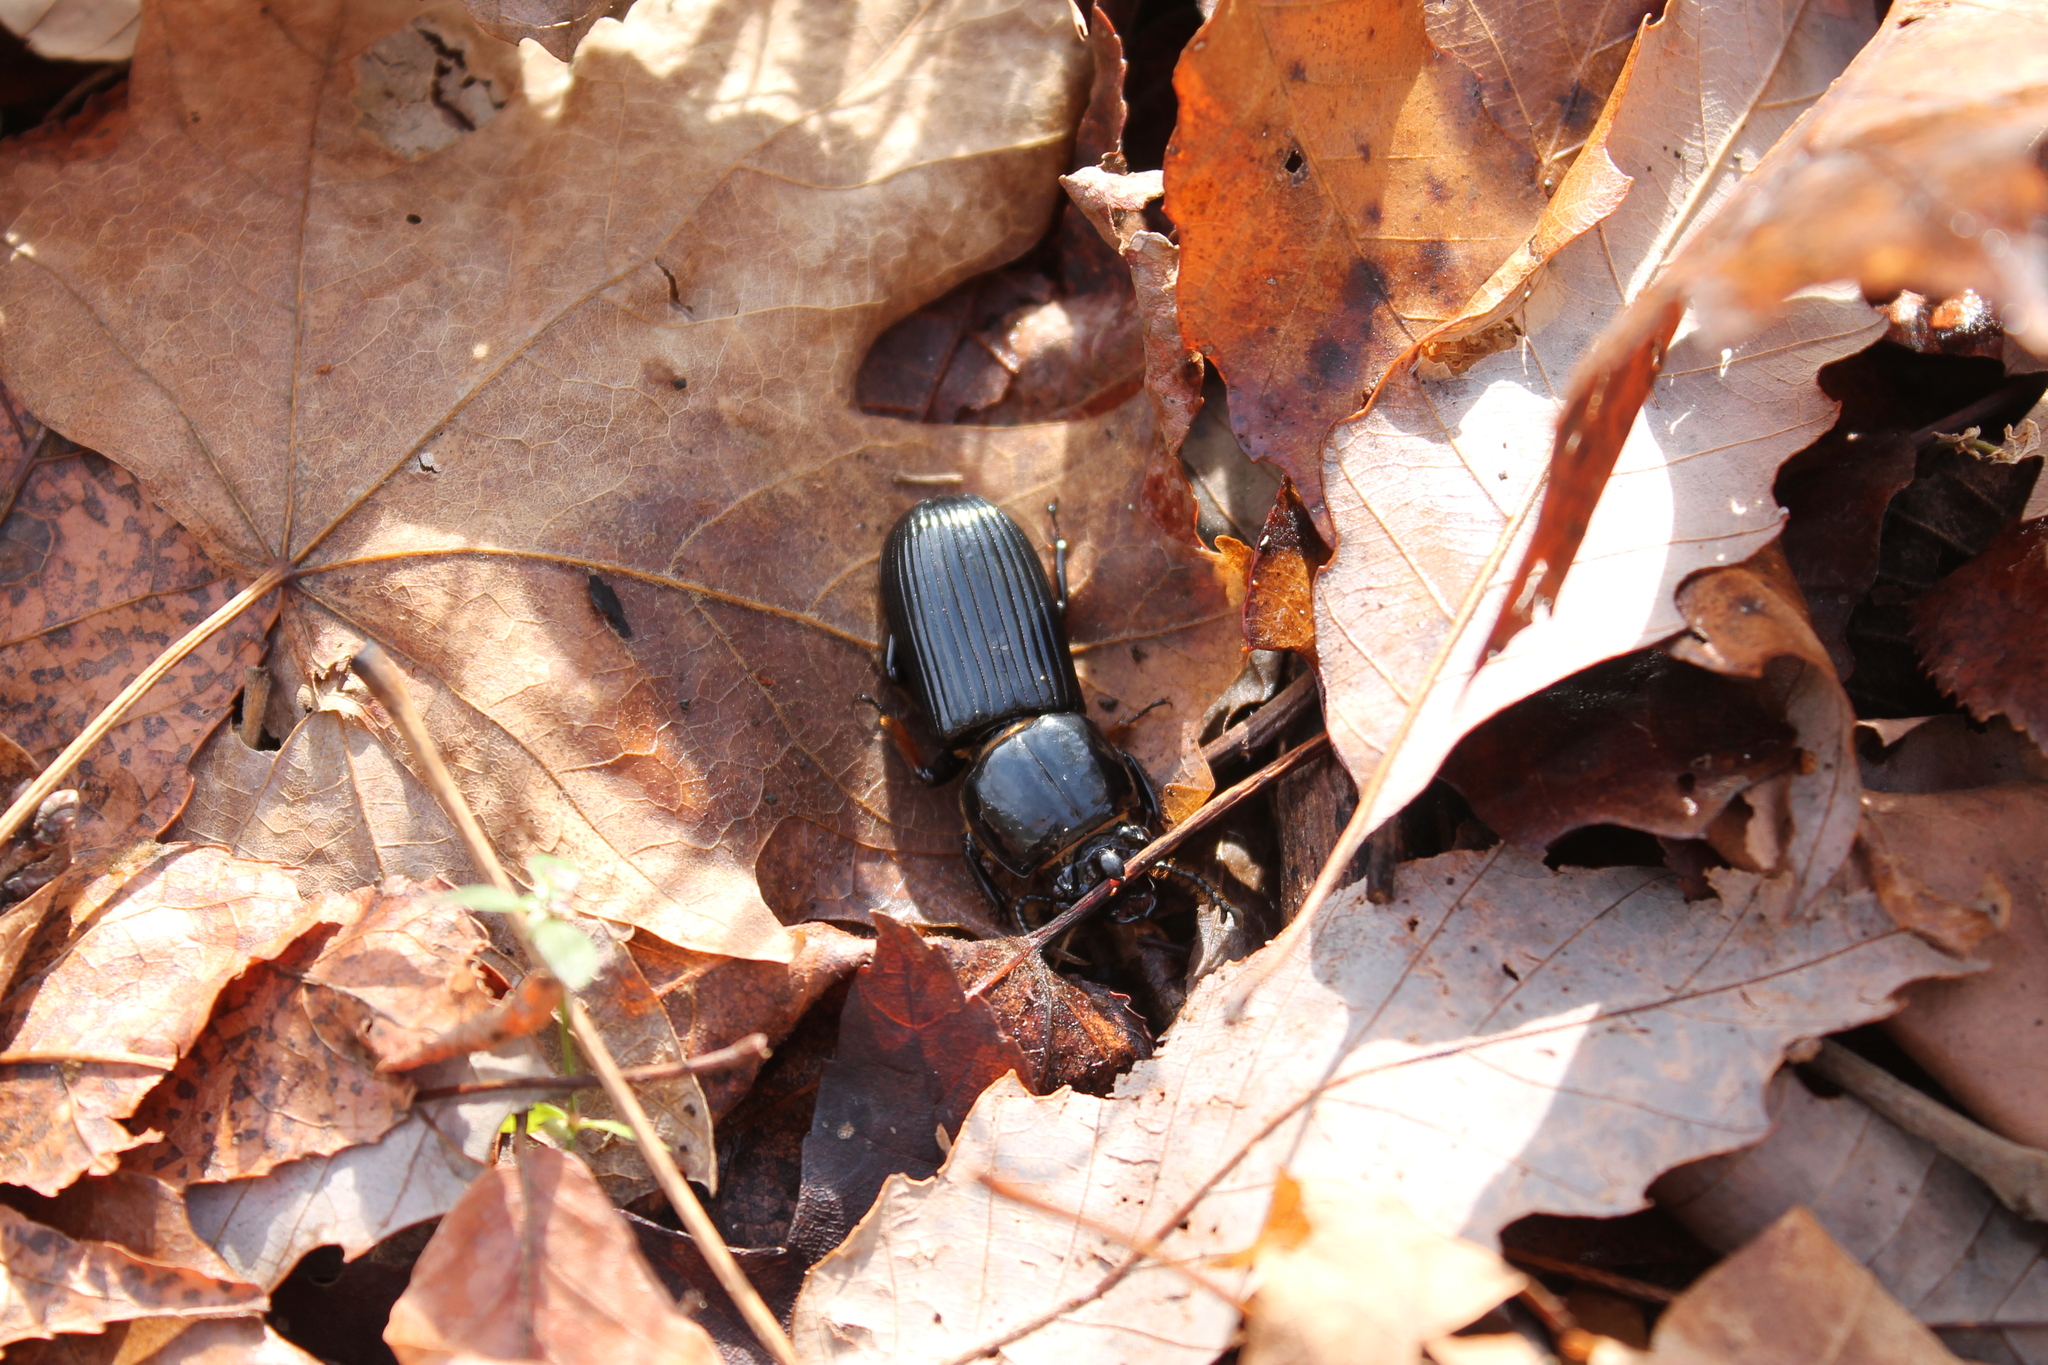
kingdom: Animalia
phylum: Arthropoda
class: Insecta
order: Coleoptera
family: Passalidae
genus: Odontotaenius
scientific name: Odontotaenius disjunctus
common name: Patent leather beetle
